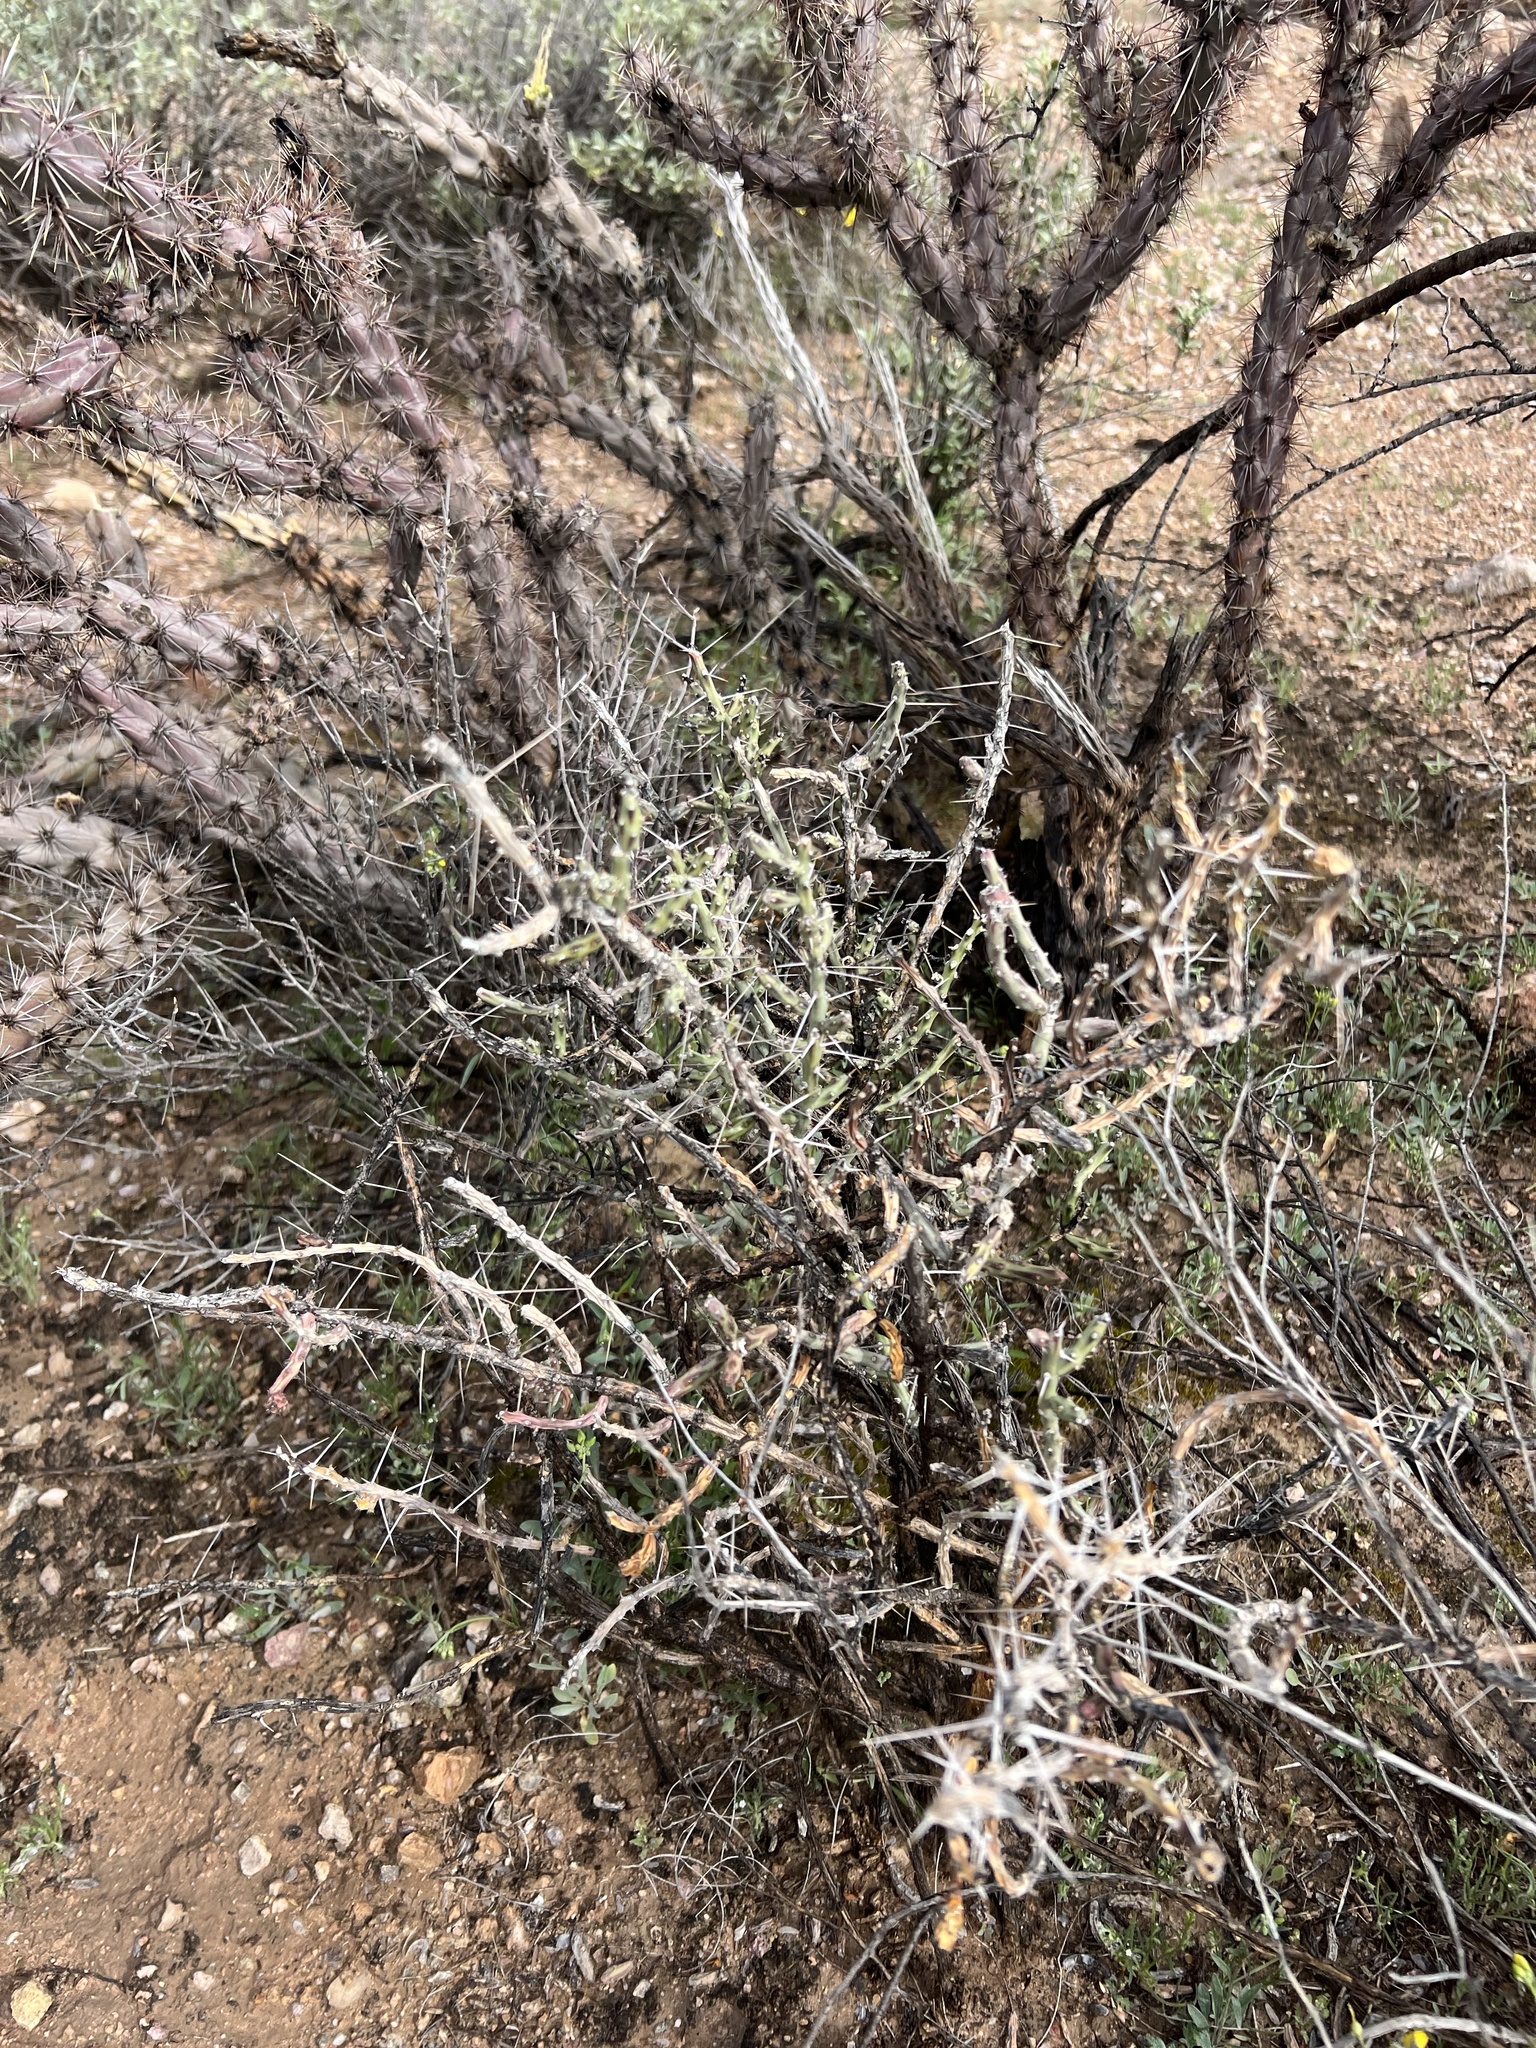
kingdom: Plantae
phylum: Tracheophyta
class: Magnoliopsida
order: Caryophyllales
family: Cactaceae
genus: Cylindropuntia
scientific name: Cylindropuntia leptocaulis
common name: Christmas cactus
